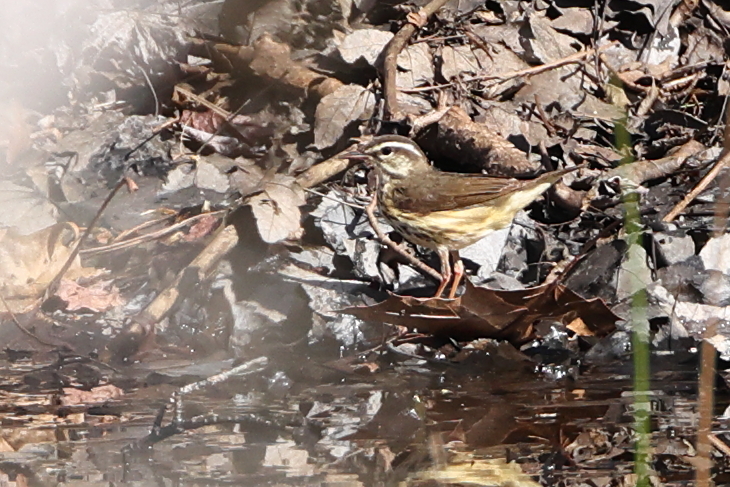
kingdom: Animalia
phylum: Chordata
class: Aves
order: Passeriformes
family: Parulidae
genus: Parkesia
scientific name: Parkesia motacilla
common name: Louisiana waterthrush
